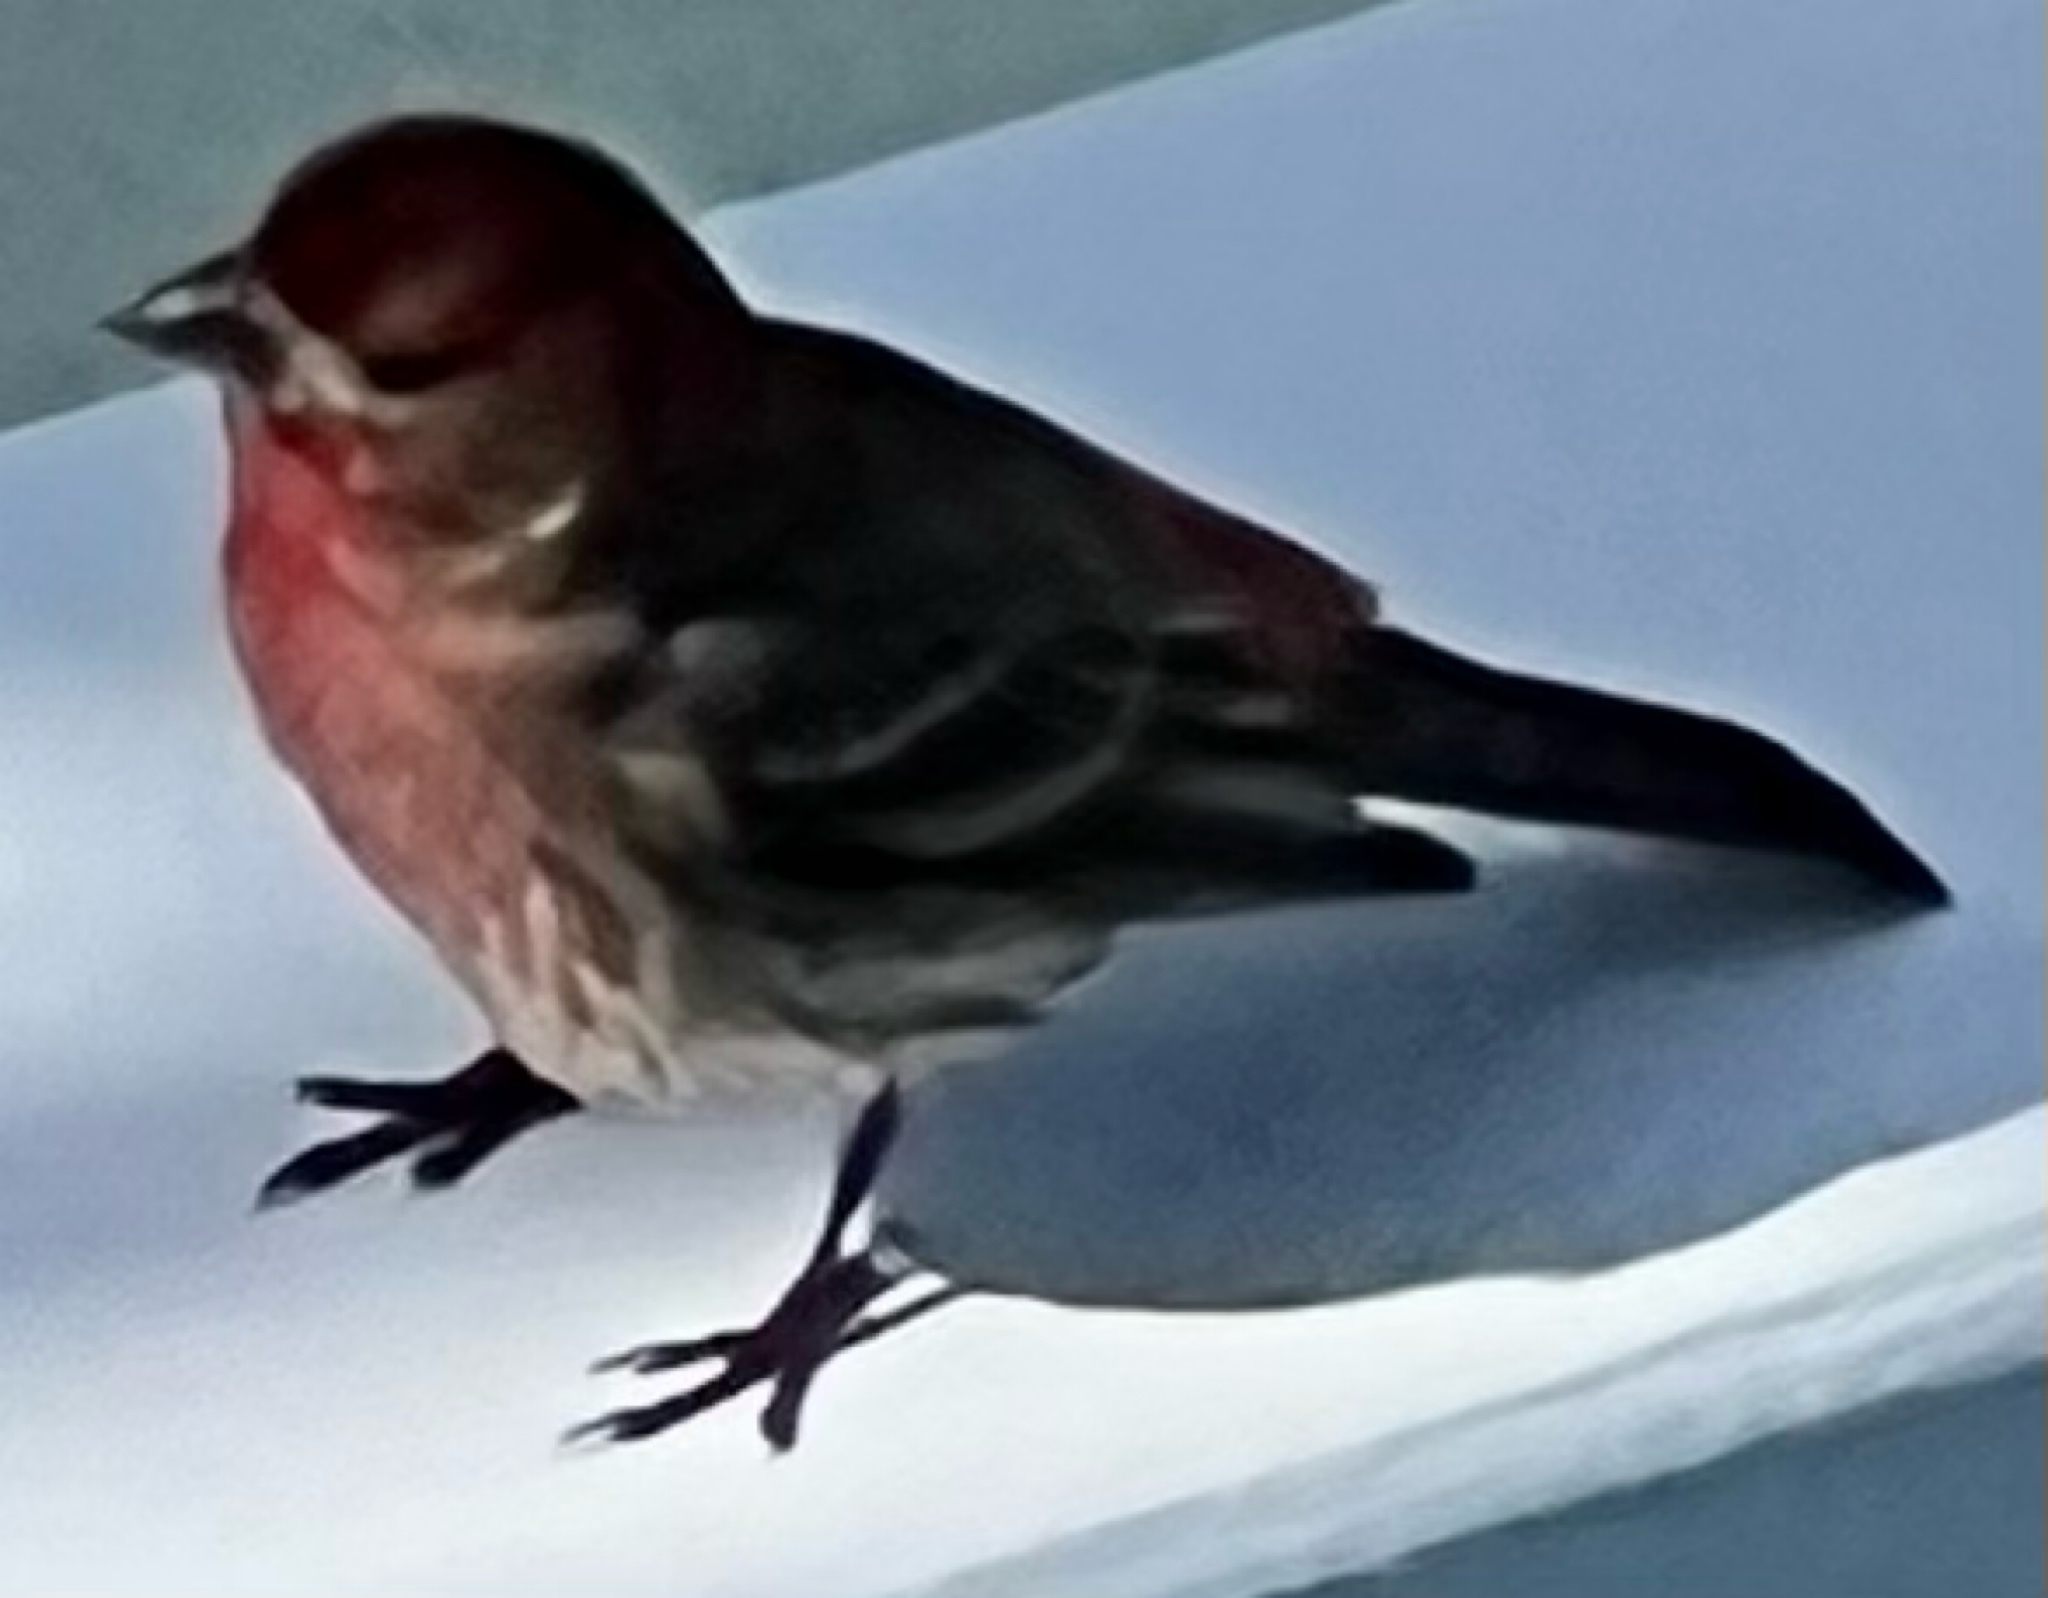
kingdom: Animalia
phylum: Chordata
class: Aves
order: Passeriformes
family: Fringillidae
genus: Haemorhous
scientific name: Haemorhous mexicanus
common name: House finch
